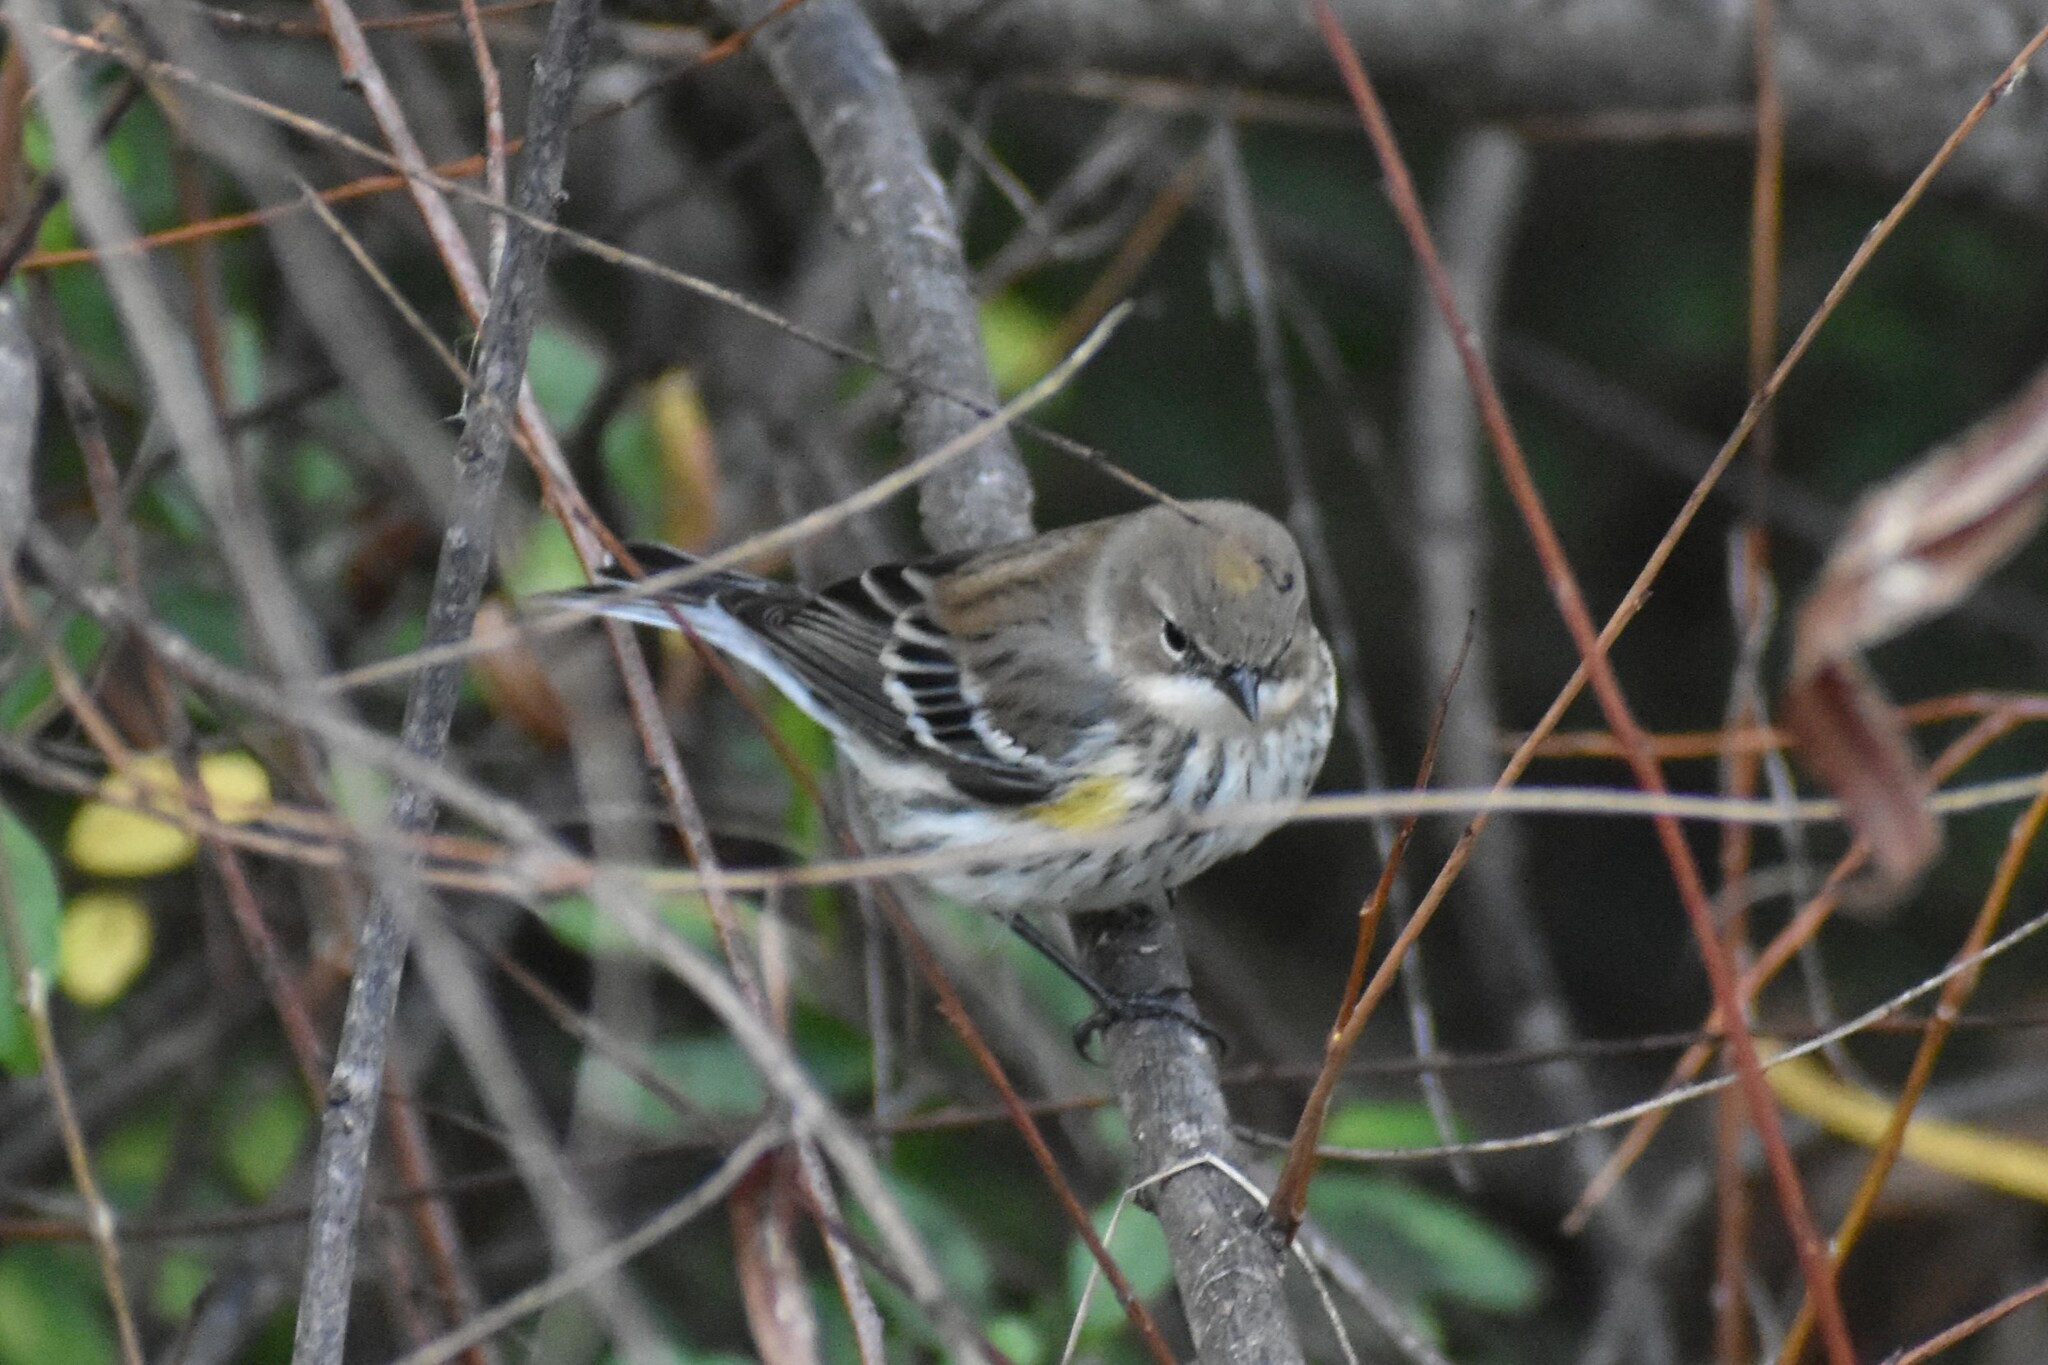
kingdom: Animalia
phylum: Chordata
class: Aves
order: Passeriformes
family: Parulidae
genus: Setophaga
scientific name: Setophaga coronata
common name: Myrtle warbler
